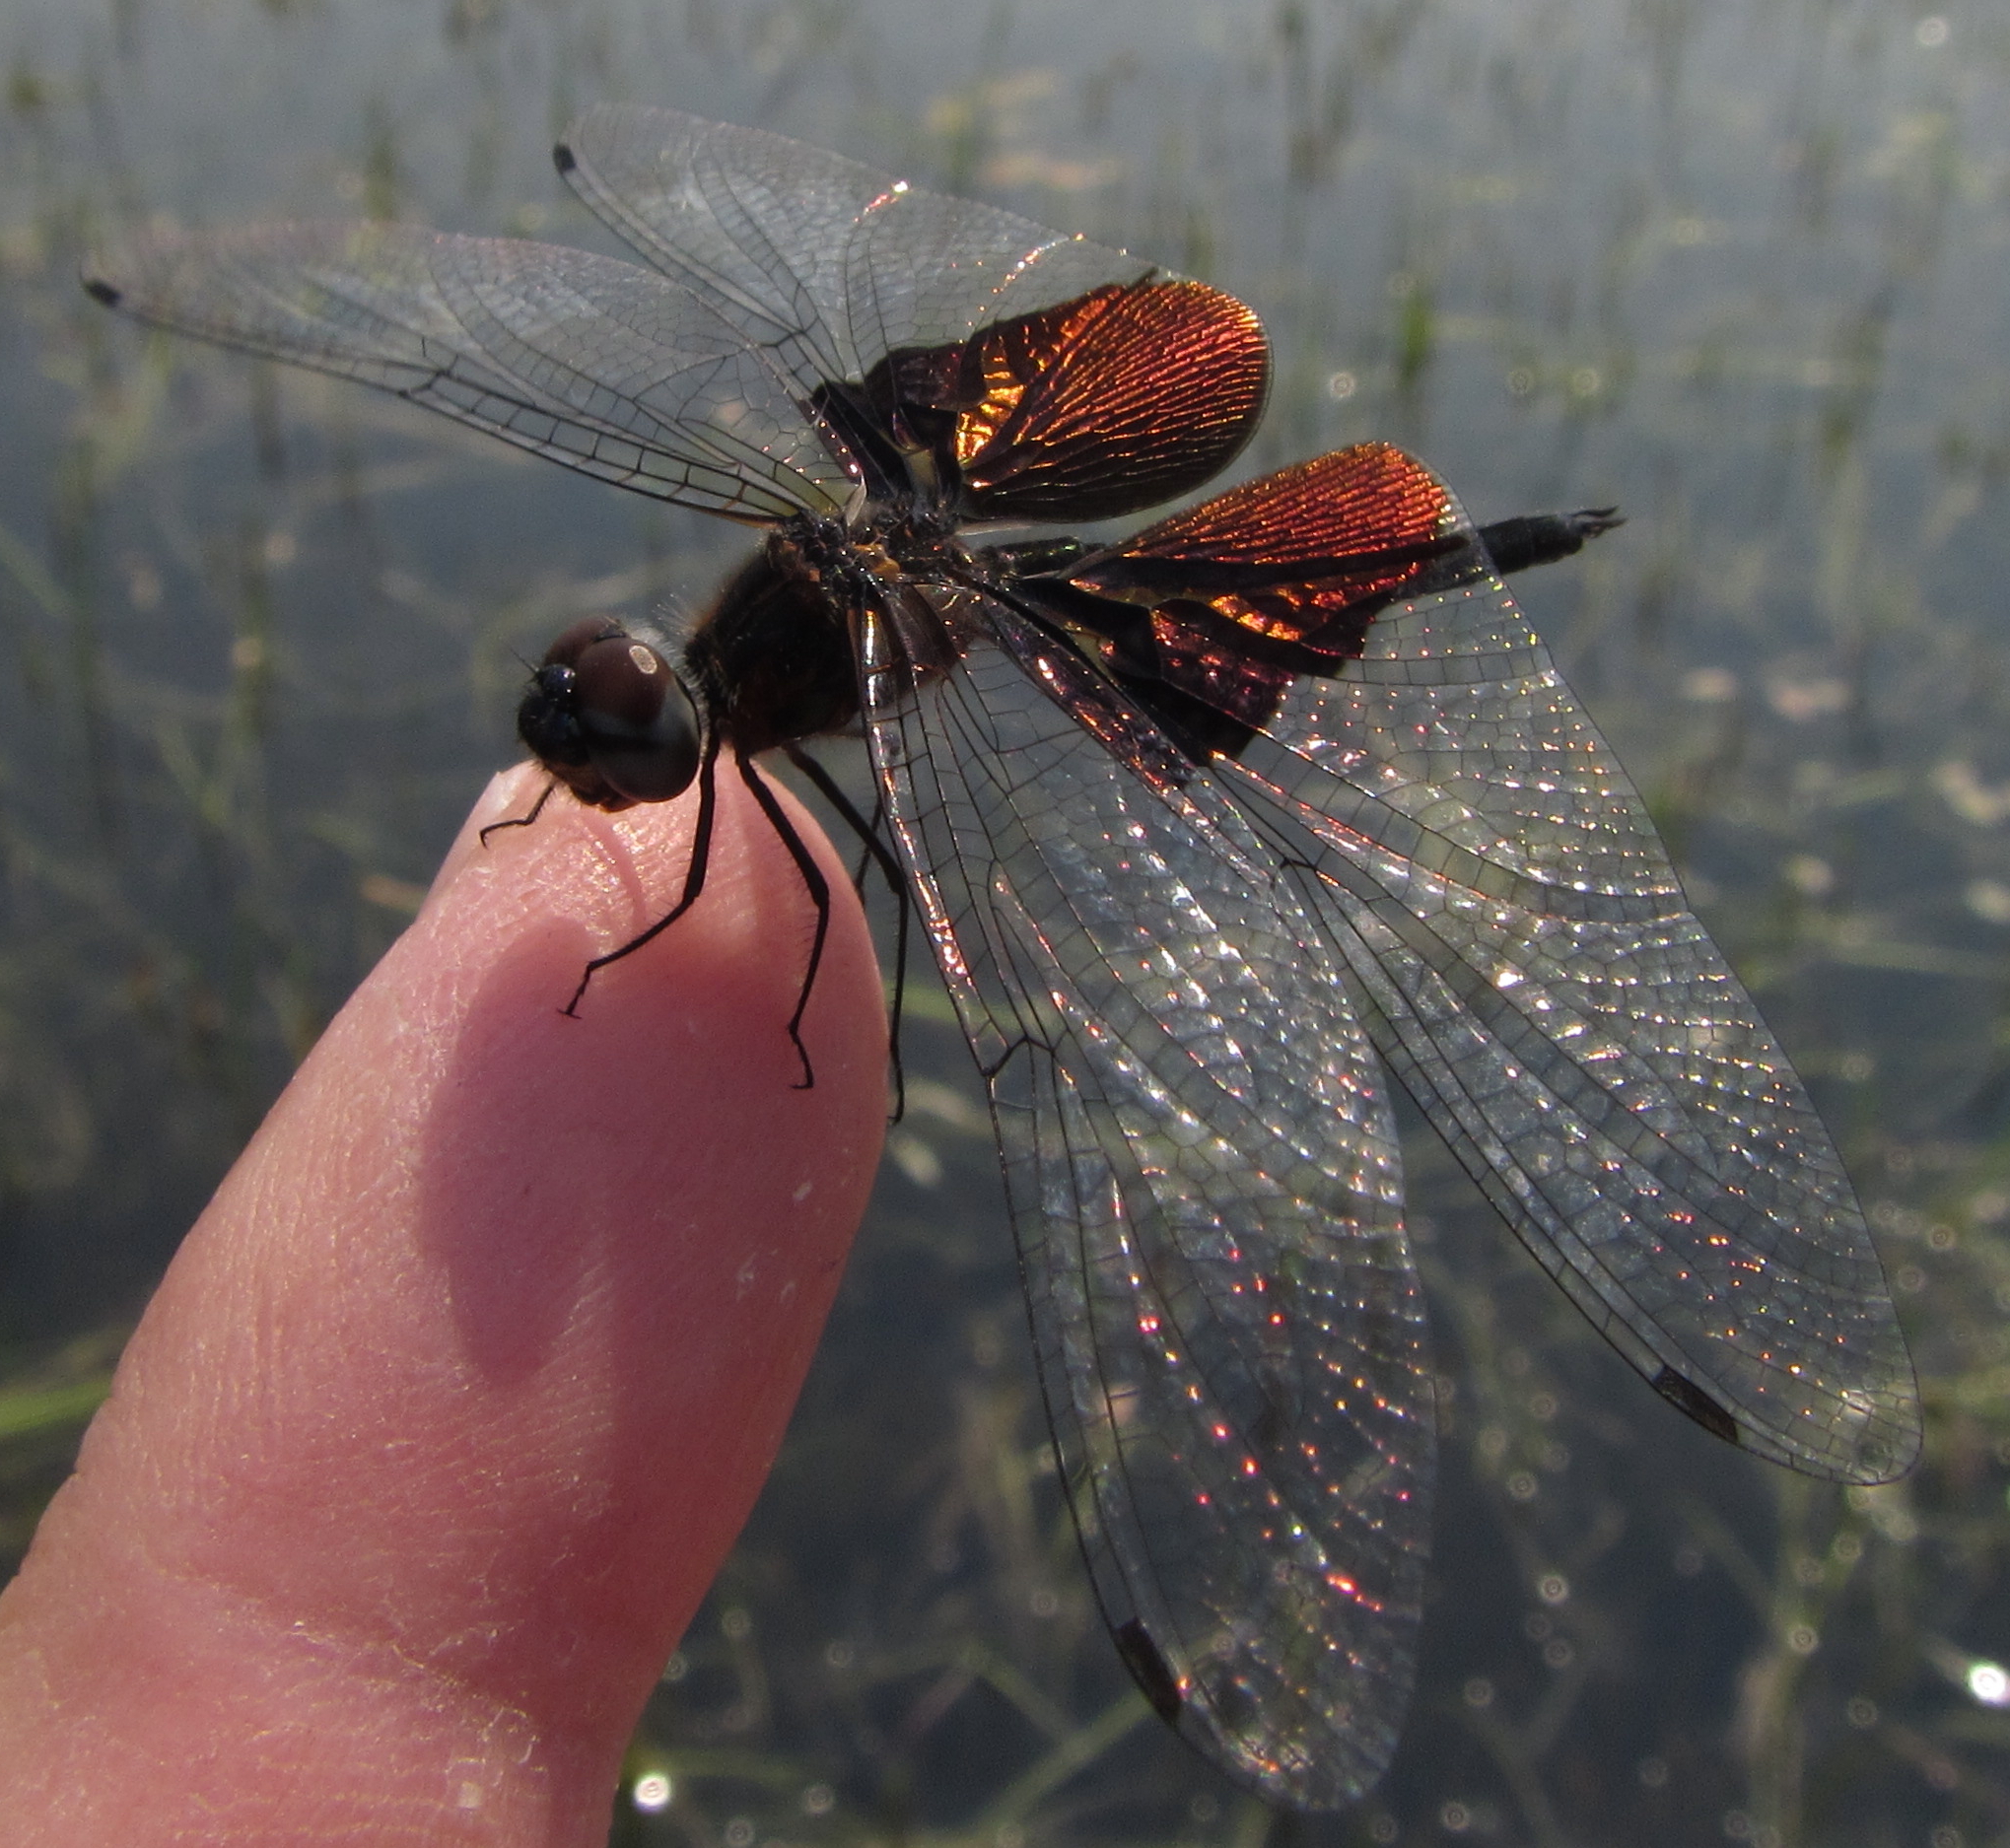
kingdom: Animalia
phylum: Arthropoda
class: Insecta
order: Odonata
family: Libellulidae
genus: Rhyothemis
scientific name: Rhyothemis semihyalina
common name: Phantom flutterer
